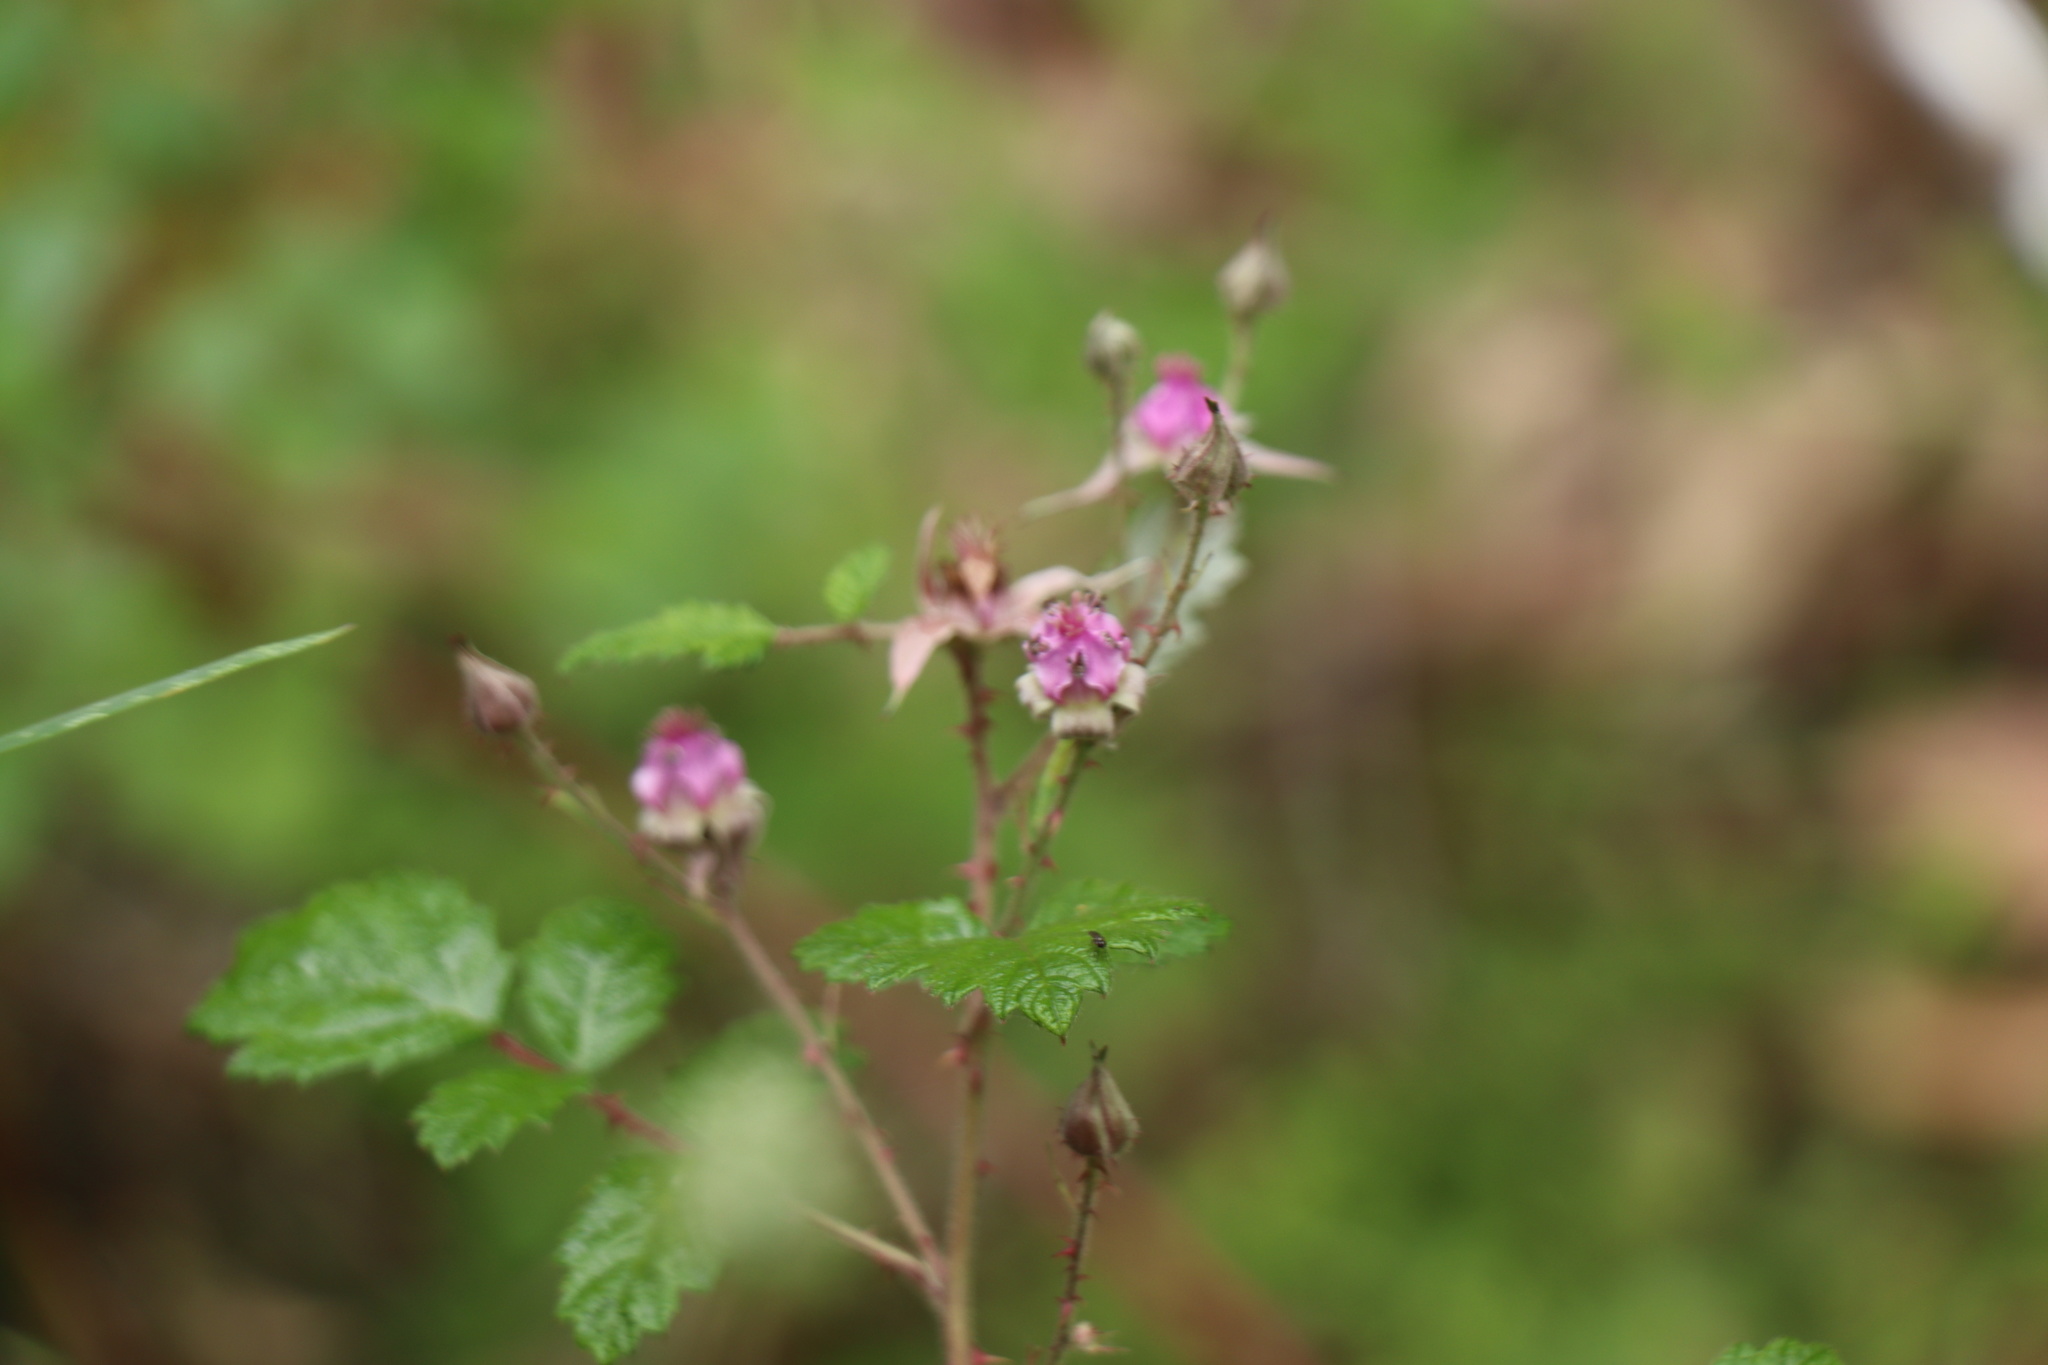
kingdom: Plantae
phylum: Tracheophyta
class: Magnoliopsida
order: Rosales
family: Rosaceae
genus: Rubus
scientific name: Rubus parvifolius
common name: Threeleaf blackberry
